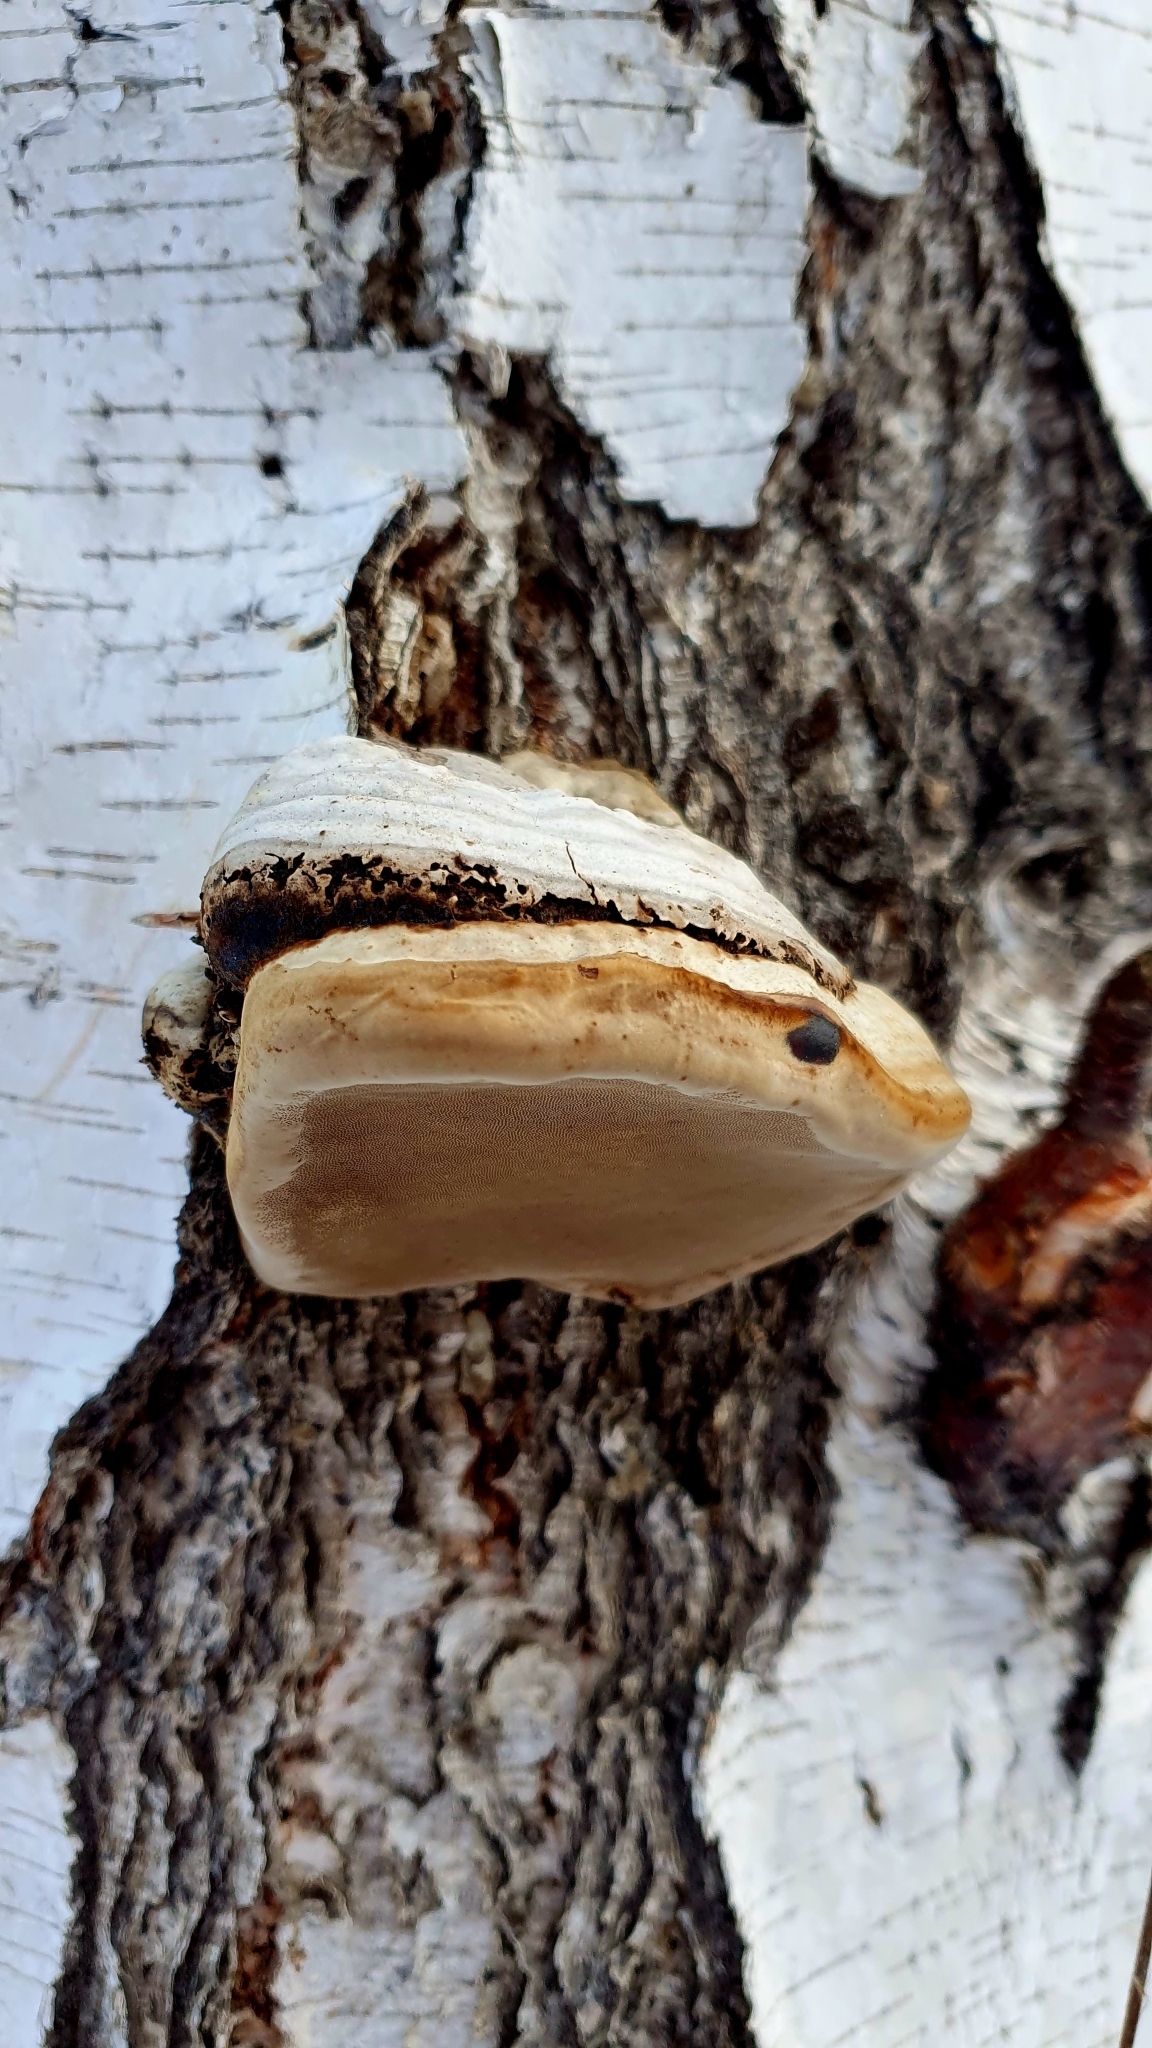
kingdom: Fungi
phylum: Basidiomycota
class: Agaricomycetes
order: Polyporales
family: Polyporaceae
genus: Fomes
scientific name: Fomes fomentarius
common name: Hoof fungus
